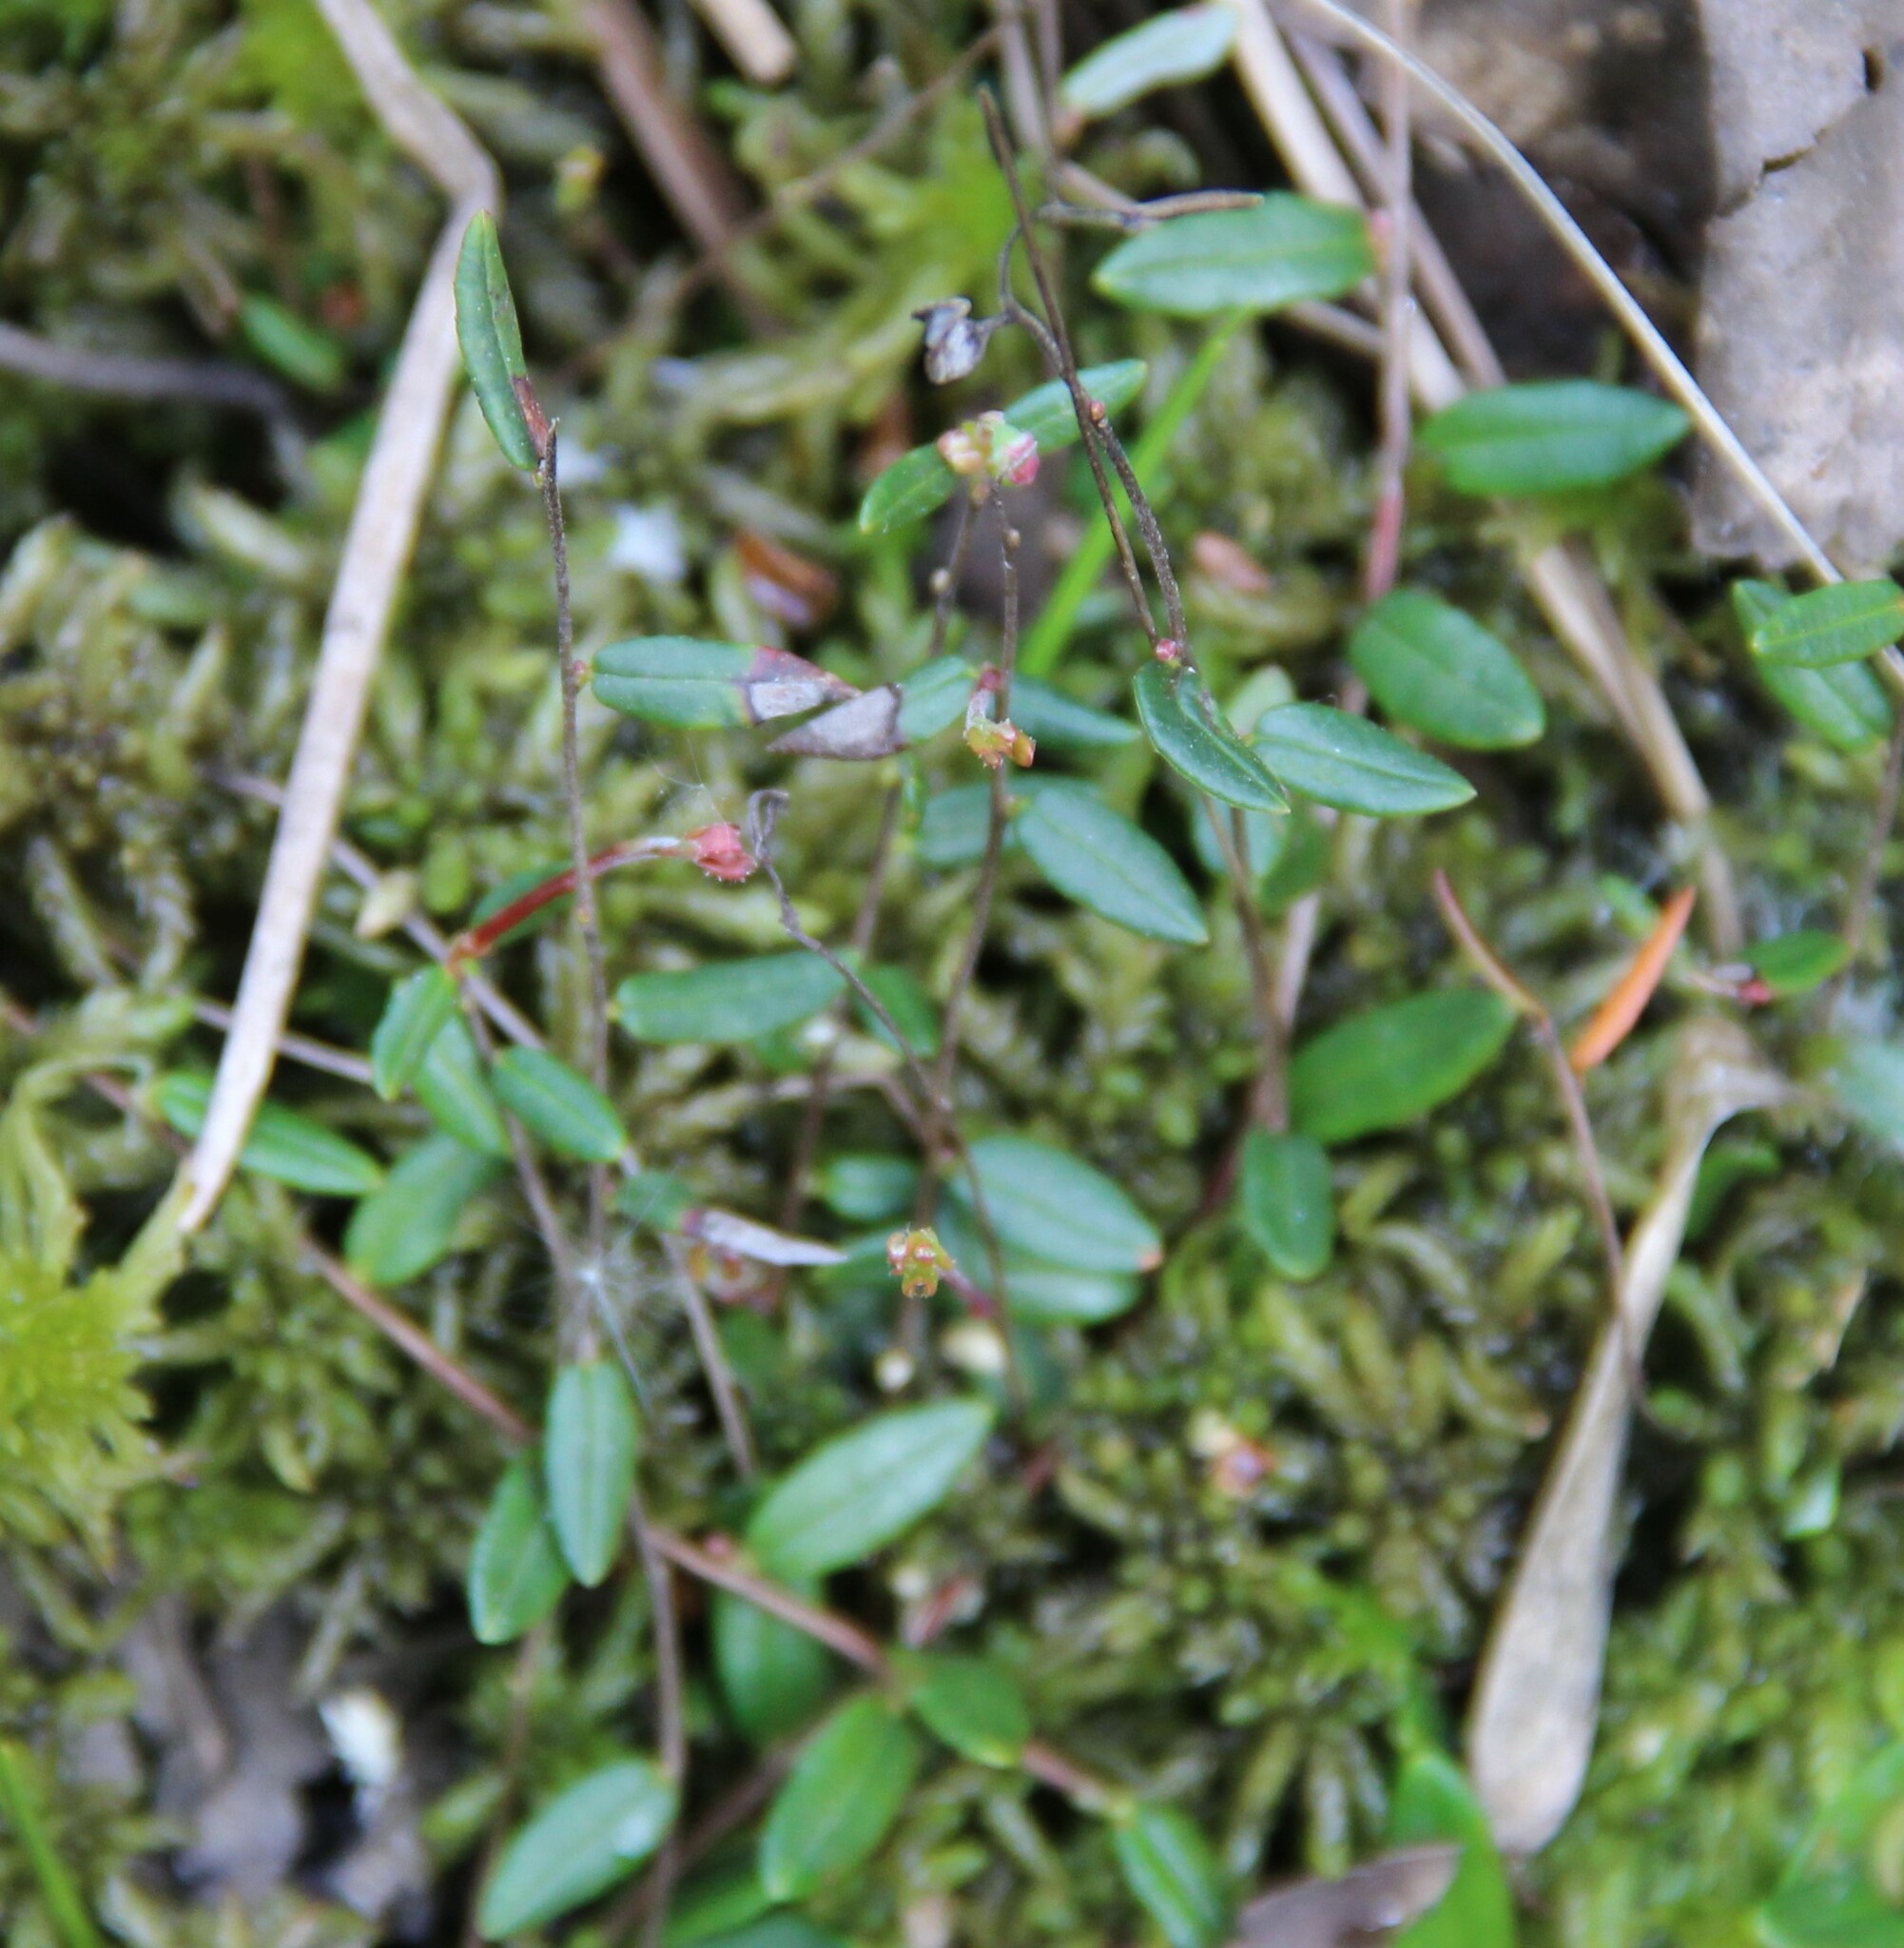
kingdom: Plantae
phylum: Tracheophyta
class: Magnoliopsida
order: Ericales
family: Ericaceae
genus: Vaccinium
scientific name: Vaccinium oxycoccos
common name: Cranberry
